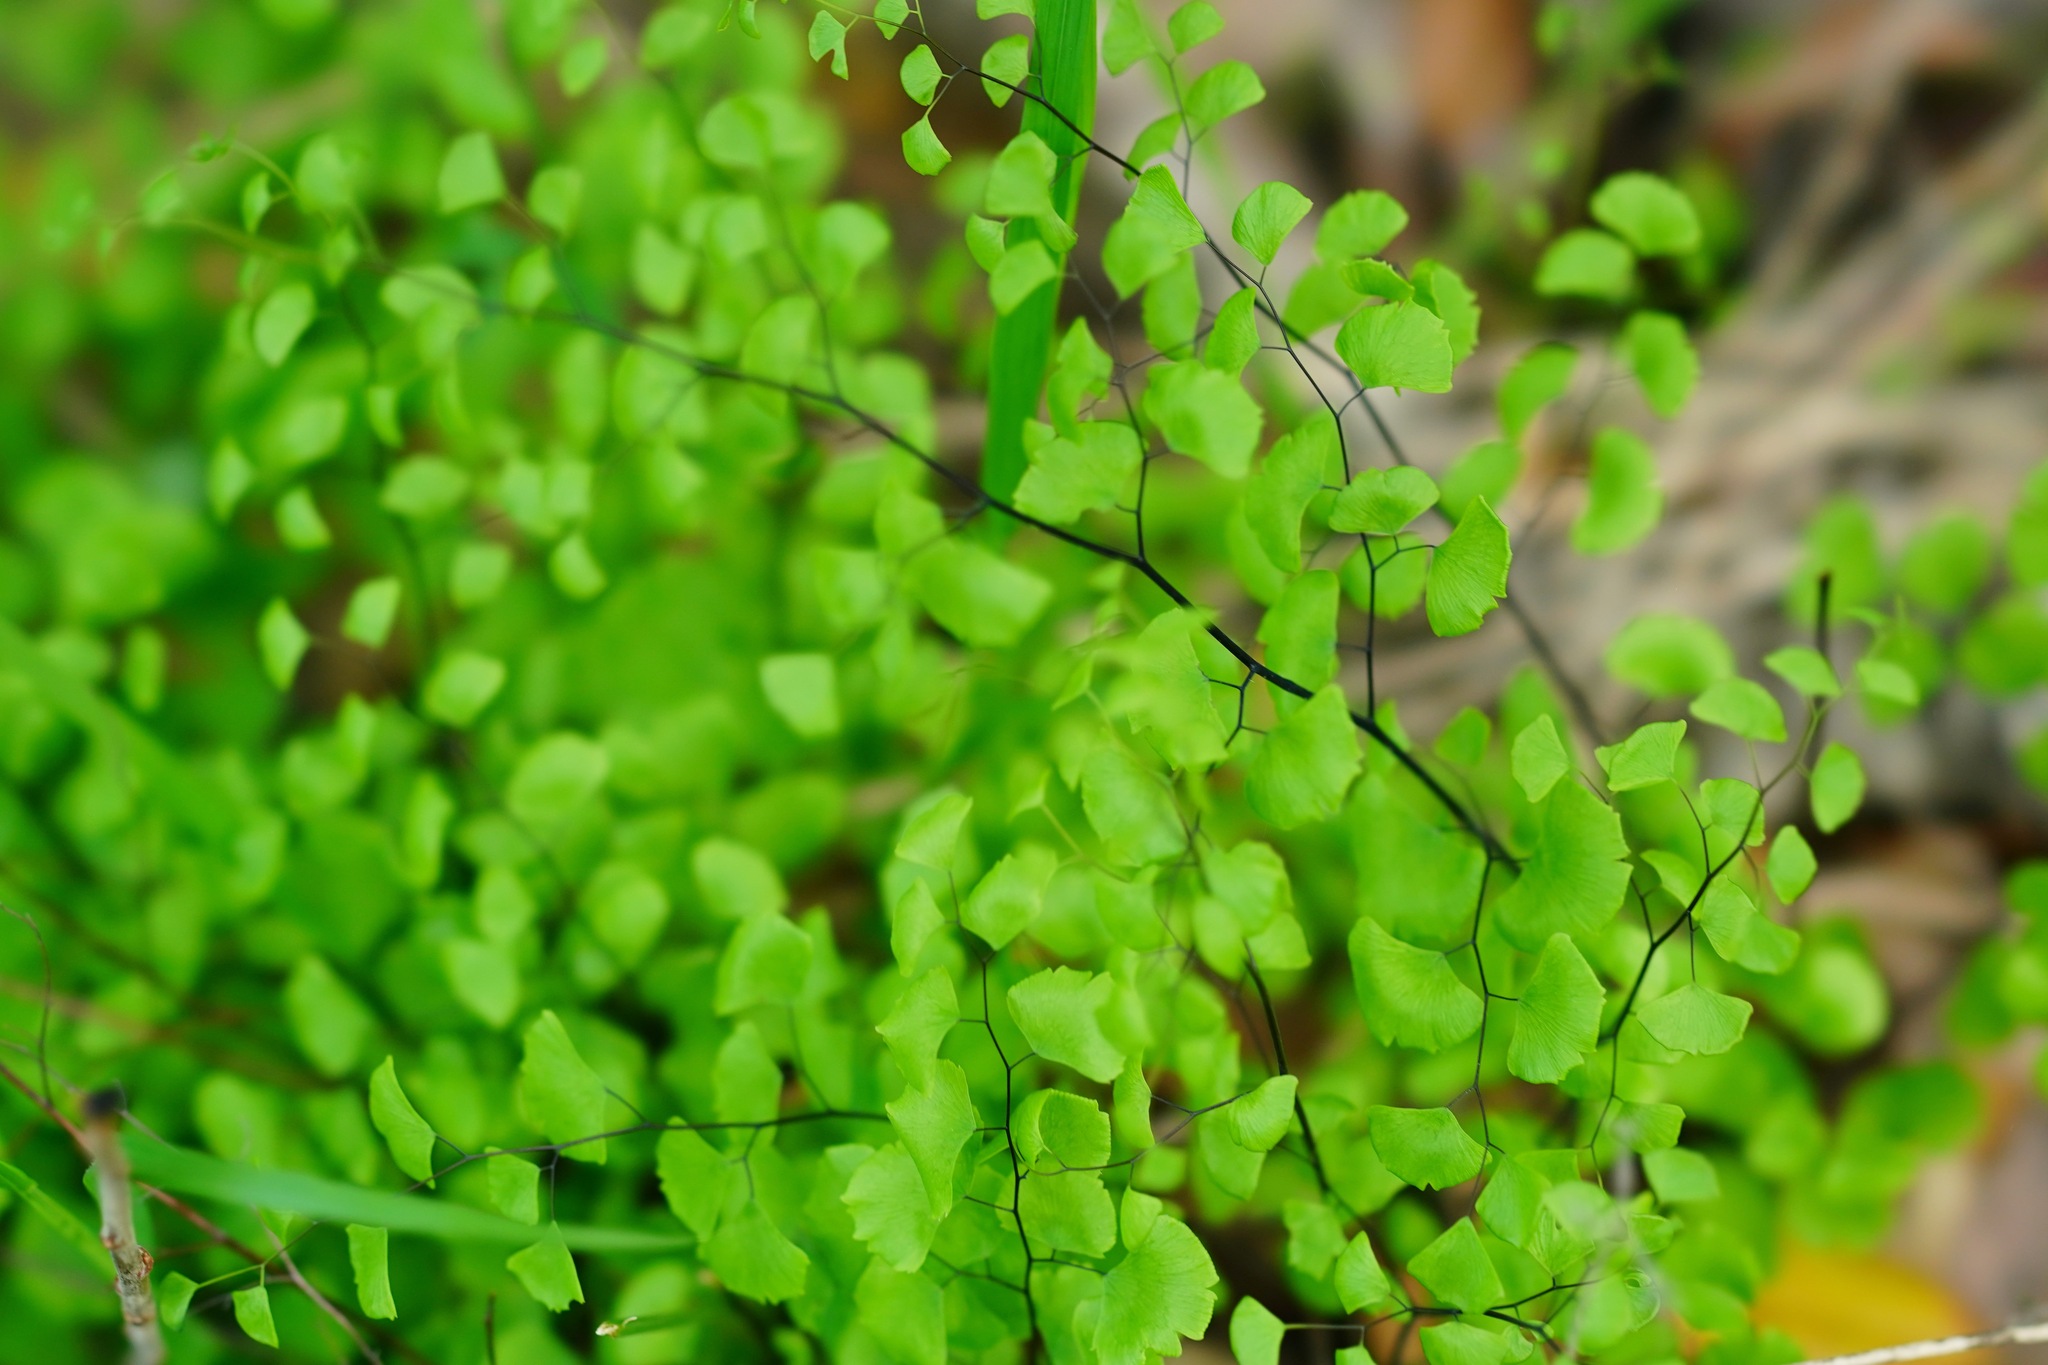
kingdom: Plantae
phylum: Tracheophyta
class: Polypodiopsida
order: Polypodiales
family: Pteridaceae
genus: Adiantum
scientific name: Adiantum jordanii
